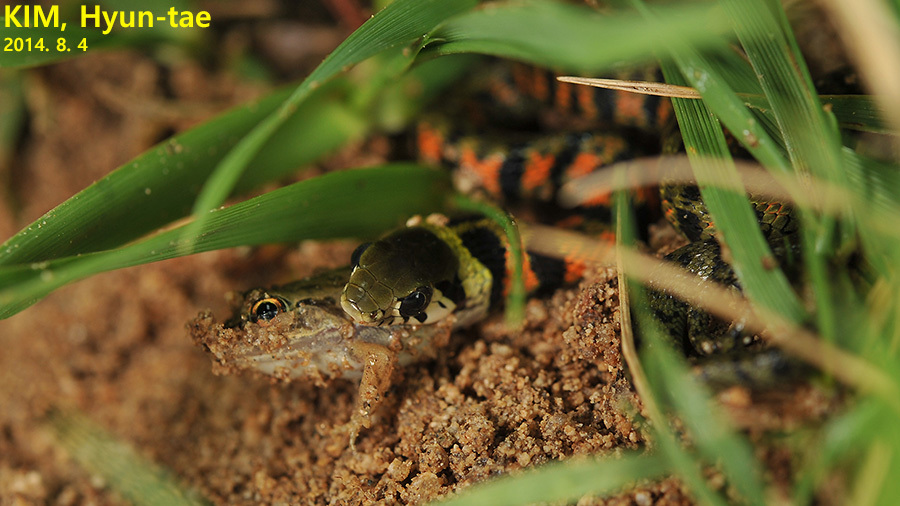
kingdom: Animalia
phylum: Chordata
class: Squamata
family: Colubridae
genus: Rhabdophis
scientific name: Rhabdophis tigrinus
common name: Tiger keelback
